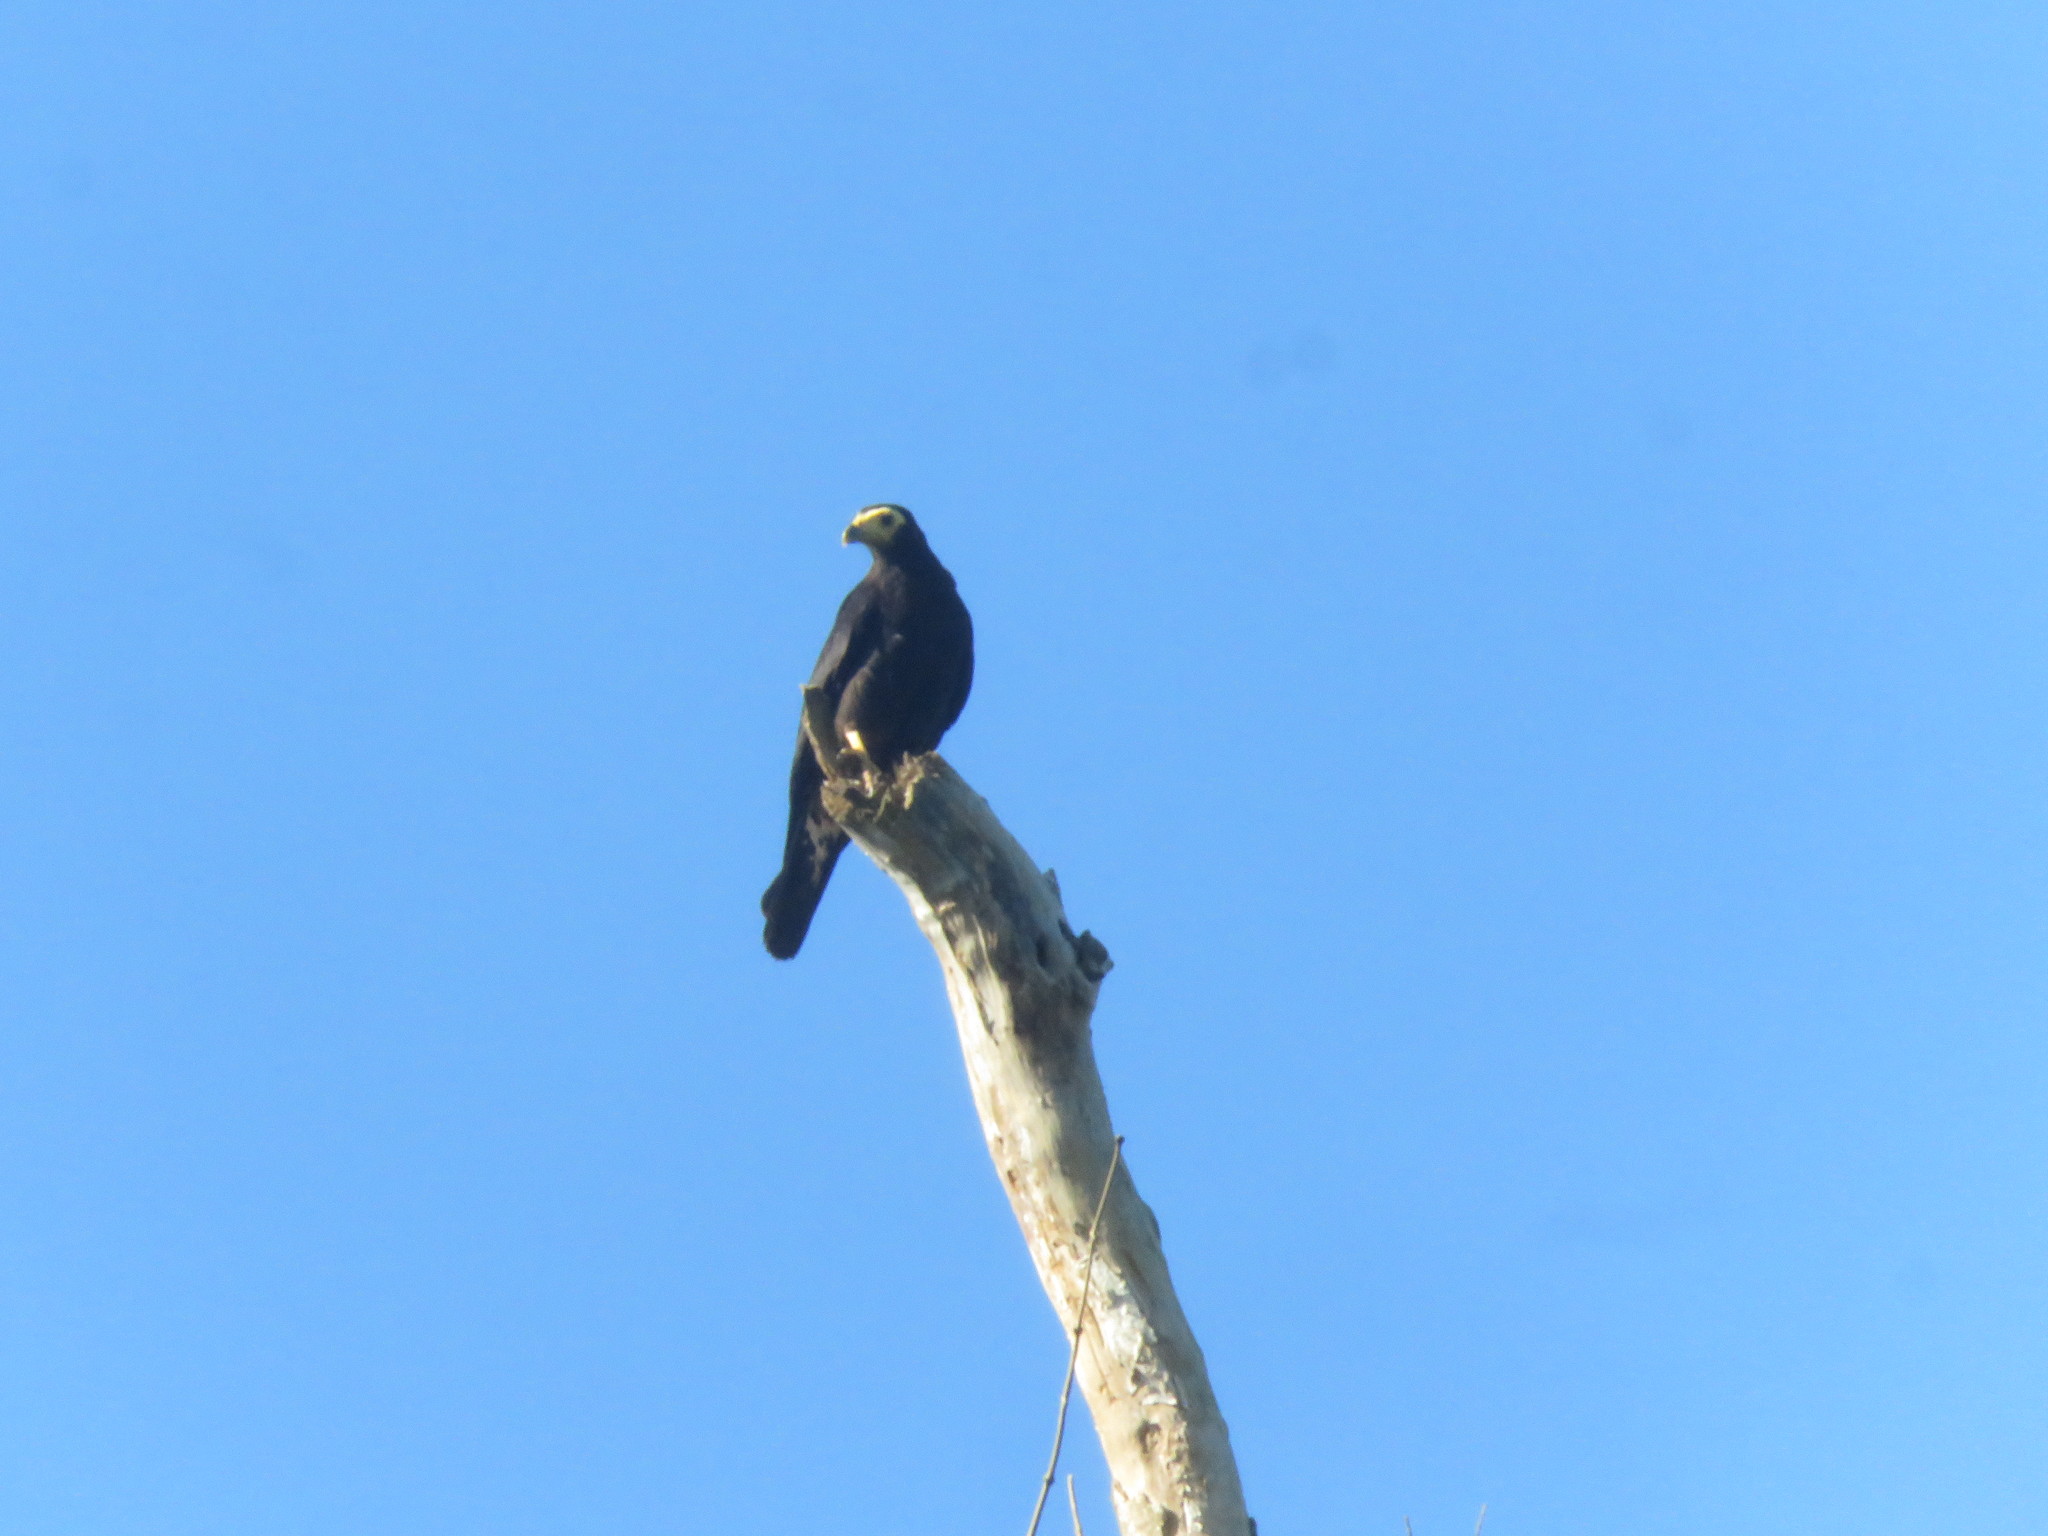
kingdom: Animalia
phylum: Chordata
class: Aves
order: Falconiformes
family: Falconidae
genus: Daptrius
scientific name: Daptrius ater
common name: Black caracara
